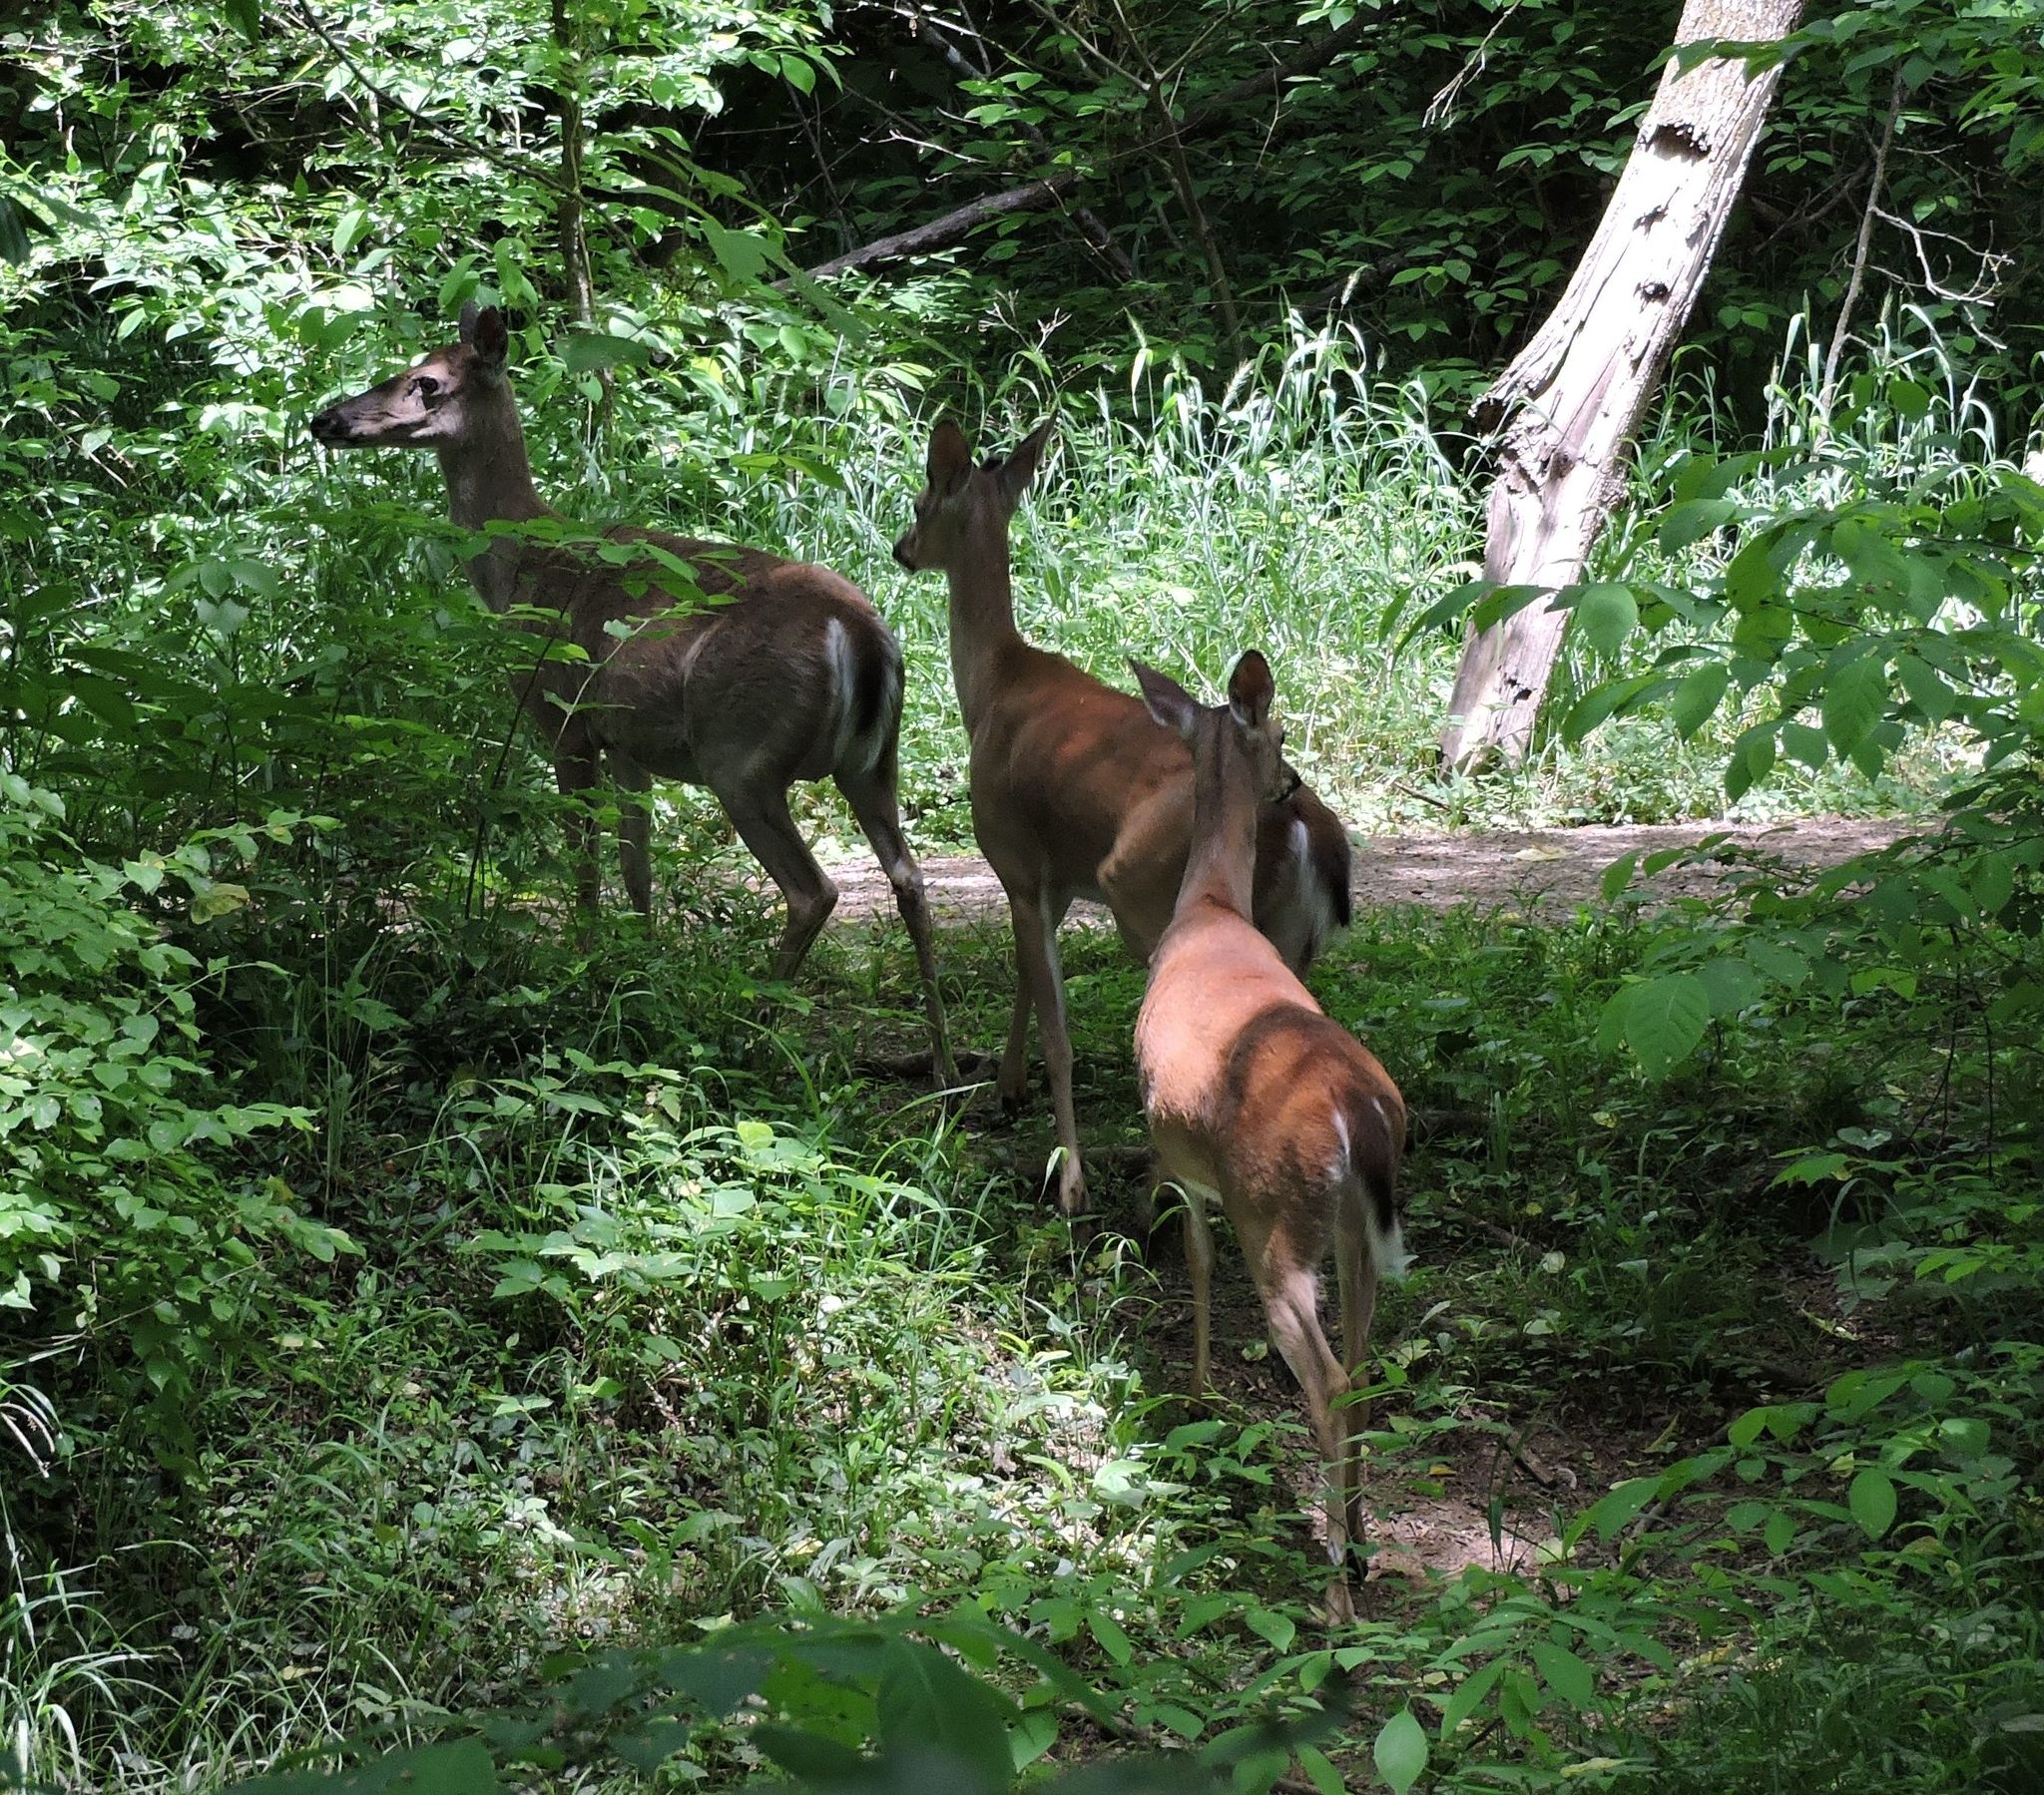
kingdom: Animalia
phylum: Chordata
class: Mammalia
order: Artiodactyla
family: Cervidae
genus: Odocoileus
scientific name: Odocoileus virginianus
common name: White-tailed deer
